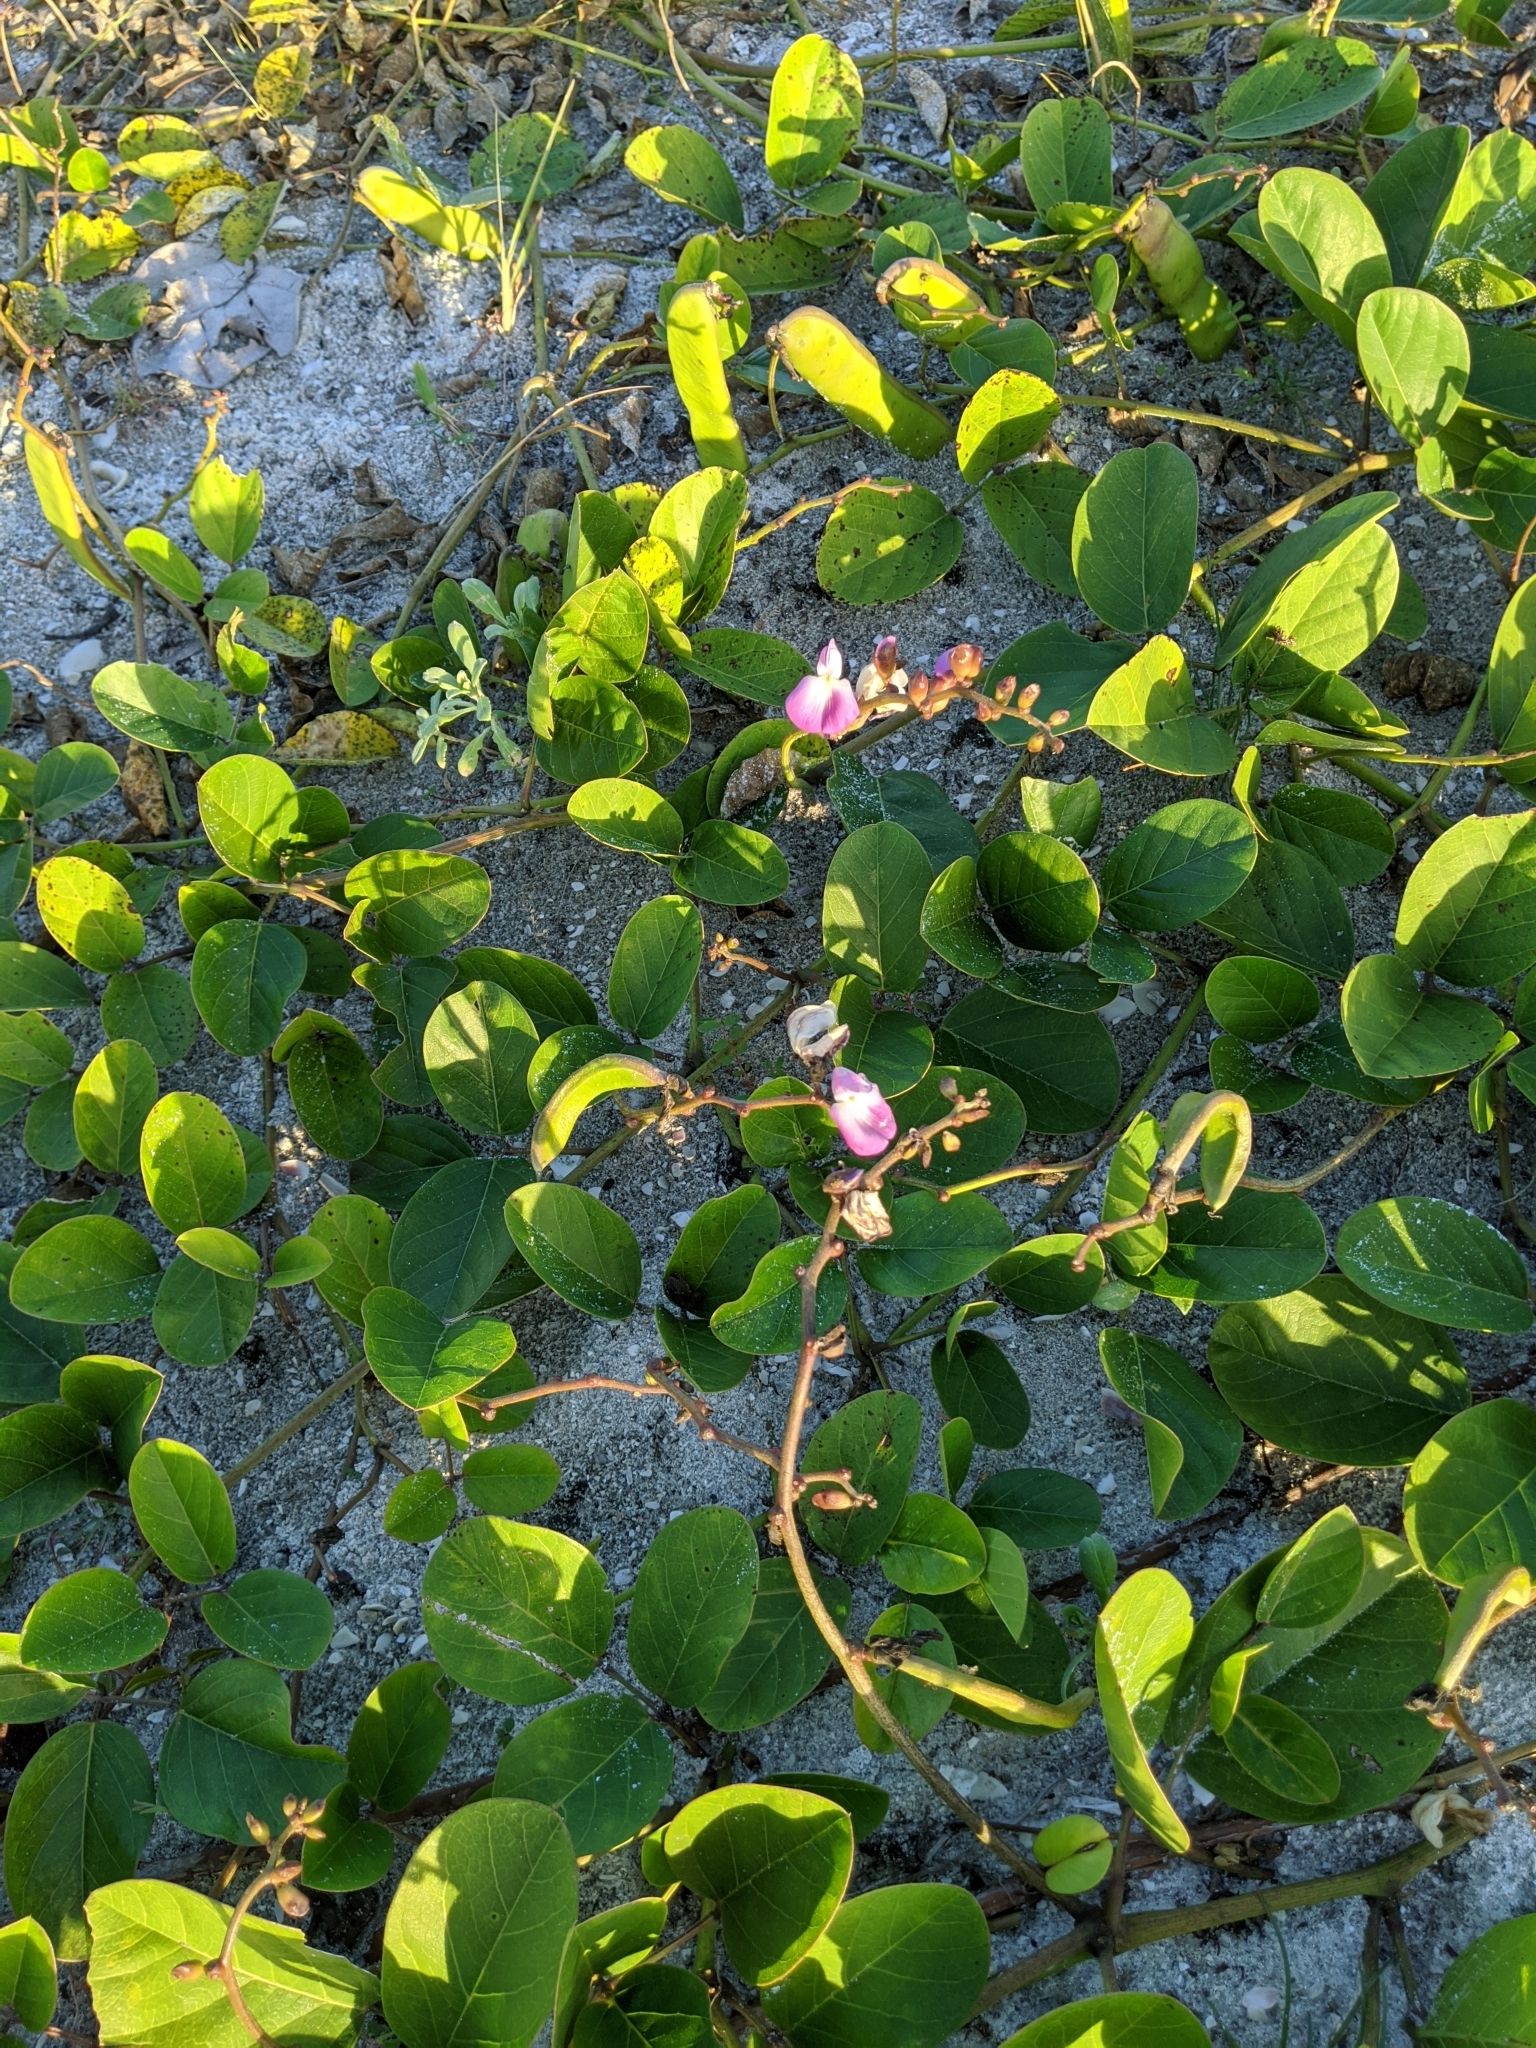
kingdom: Plantae
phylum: Tracheophyta
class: Magnoliopsida
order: Fabales
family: Fabaceae
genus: Canavalia
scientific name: Canavalia rosea
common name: Beach-bean
